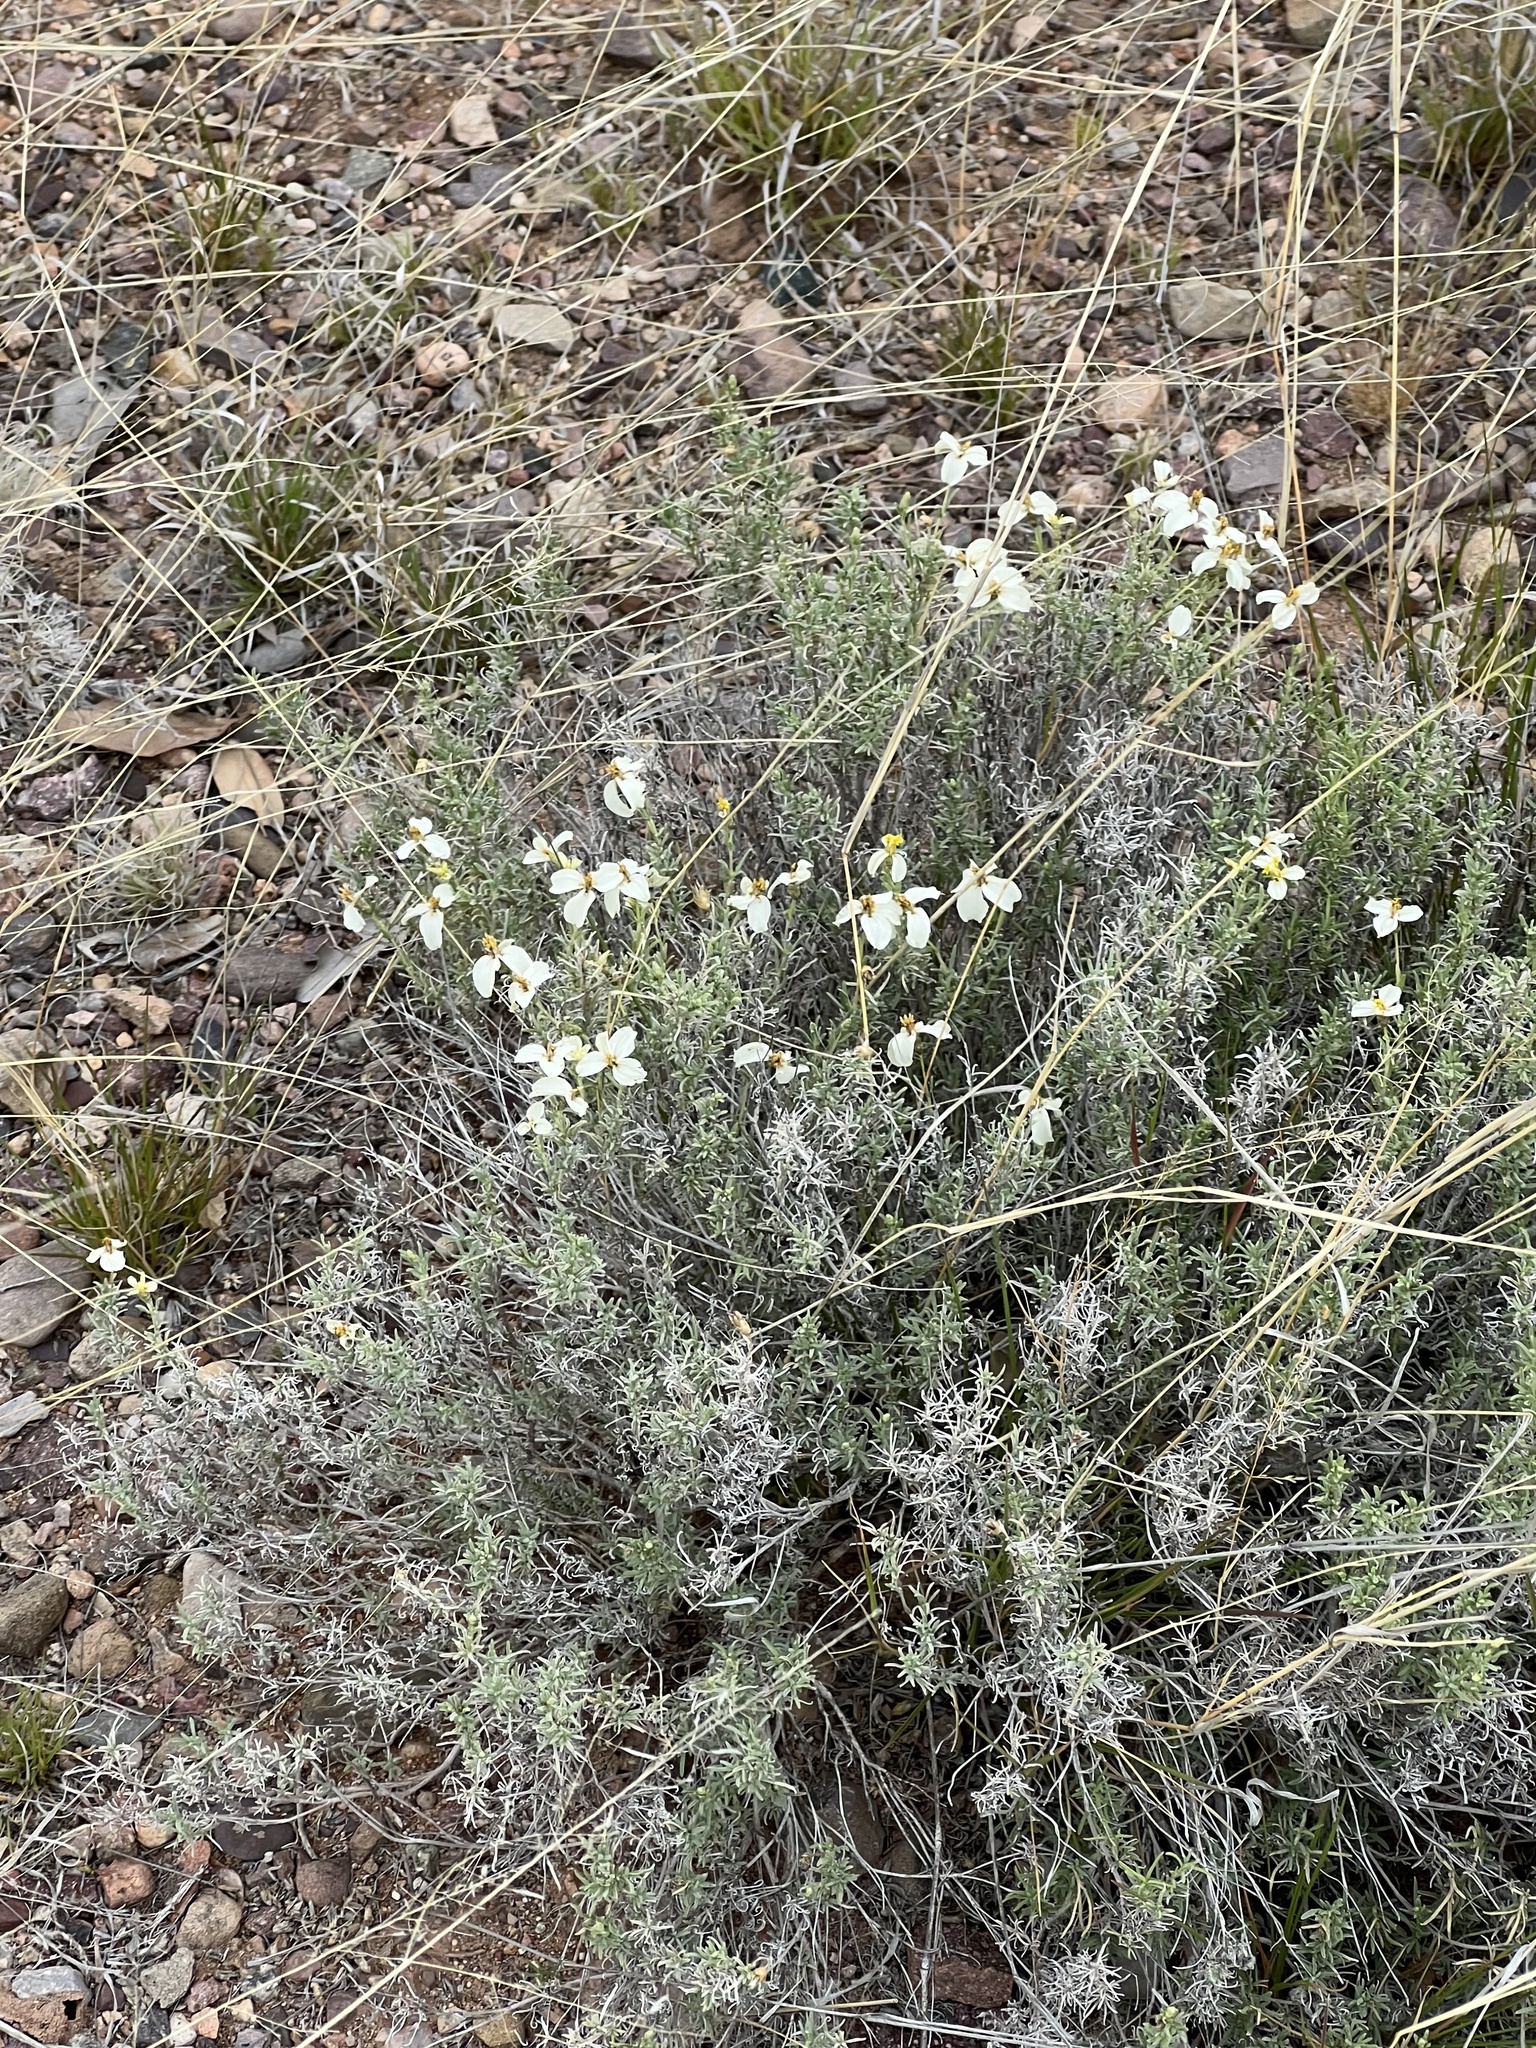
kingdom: Plantae
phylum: Tracheophyta
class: Magnoliopsida
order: Asterales
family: Asteraceae
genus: Zinnia
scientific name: Zinnia acerosa
